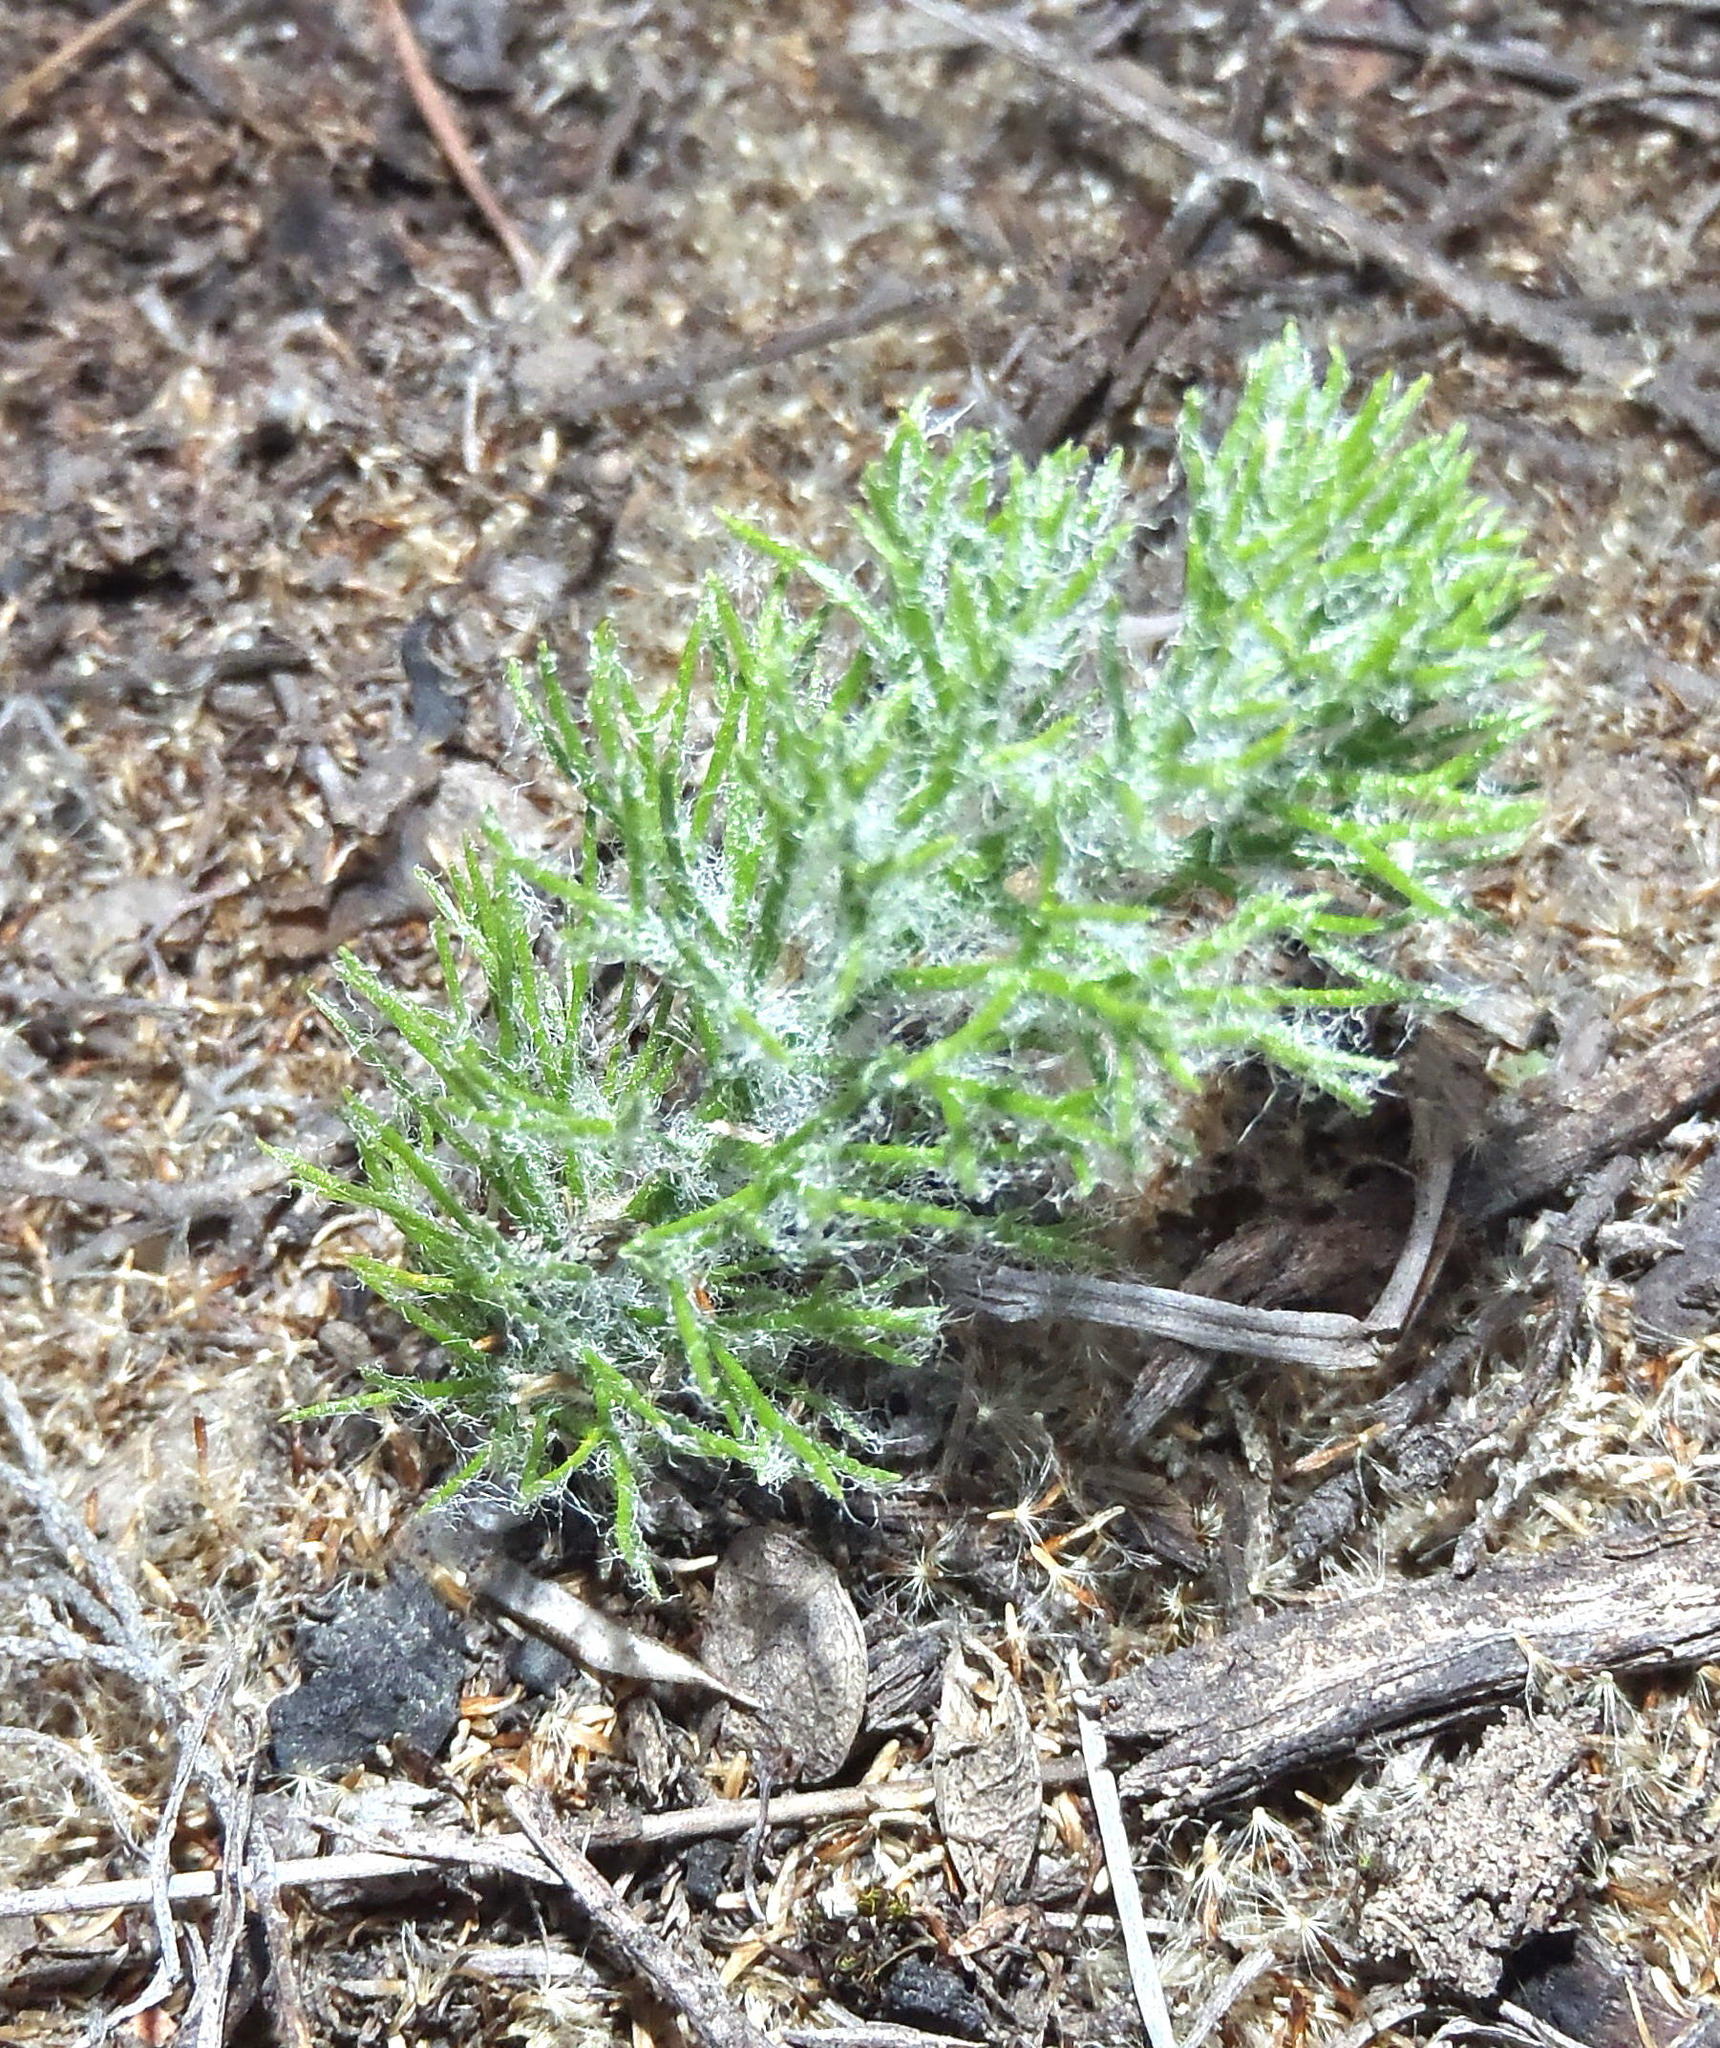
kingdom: Plantae
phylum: Tracheophyta
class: Liliopsida
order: Asparagales
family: Asparagaceae
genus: Eriospermum
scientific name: Eriospermum paradoxum
